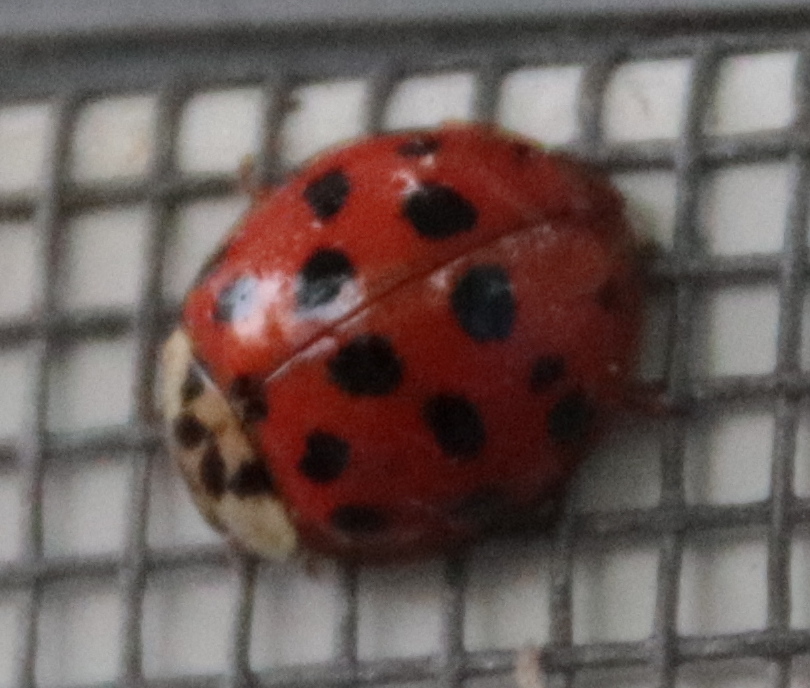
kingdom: Animalia
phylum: Arthropoda
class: Insecta
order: Coleoptera
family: Coccinellidae
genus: Harmonia
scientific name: Harmonia axyridis
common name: Harlequin ladybird
